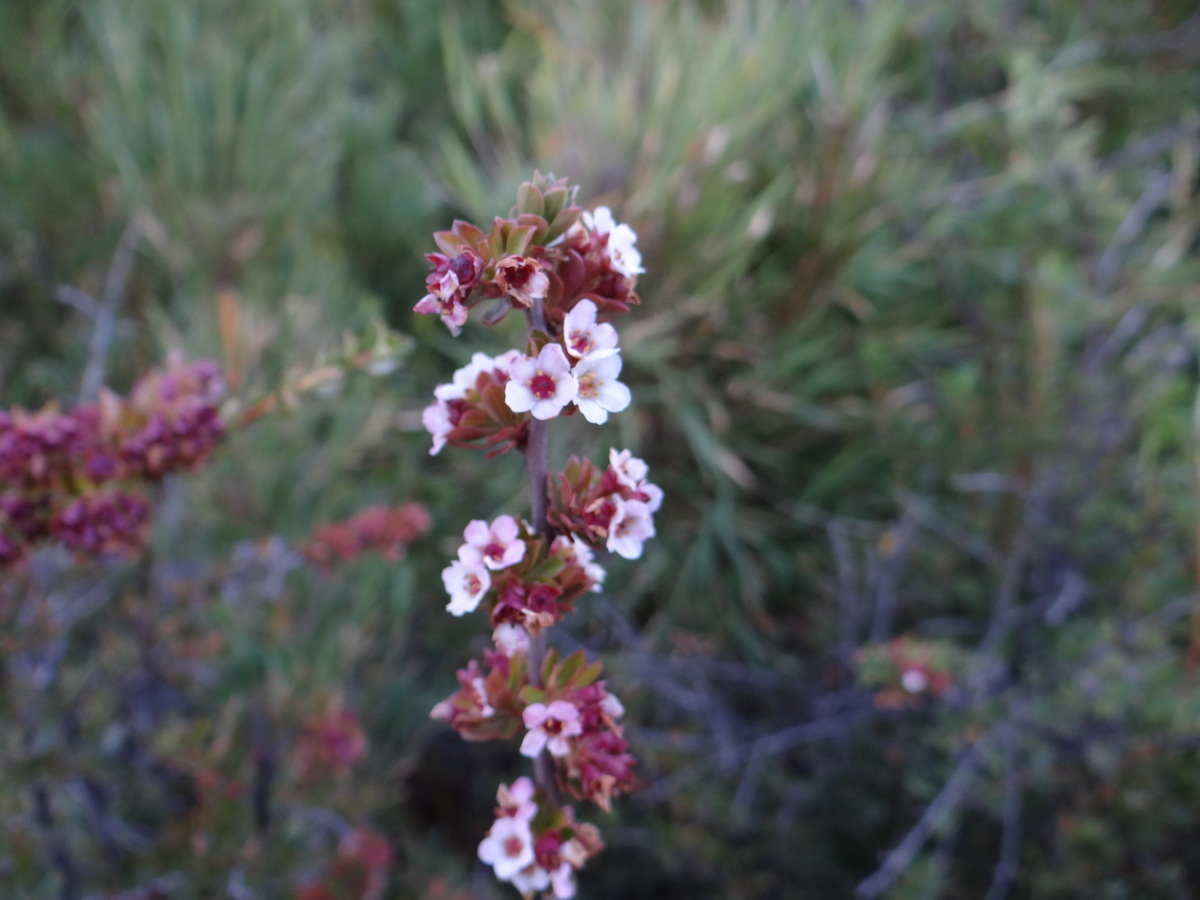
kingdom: Plantae
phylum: Tracheophyta
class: Magnoliopsida
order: Escalloniales
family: Escalloniaceae
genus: Escallonia
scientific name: Escallonia virgata
